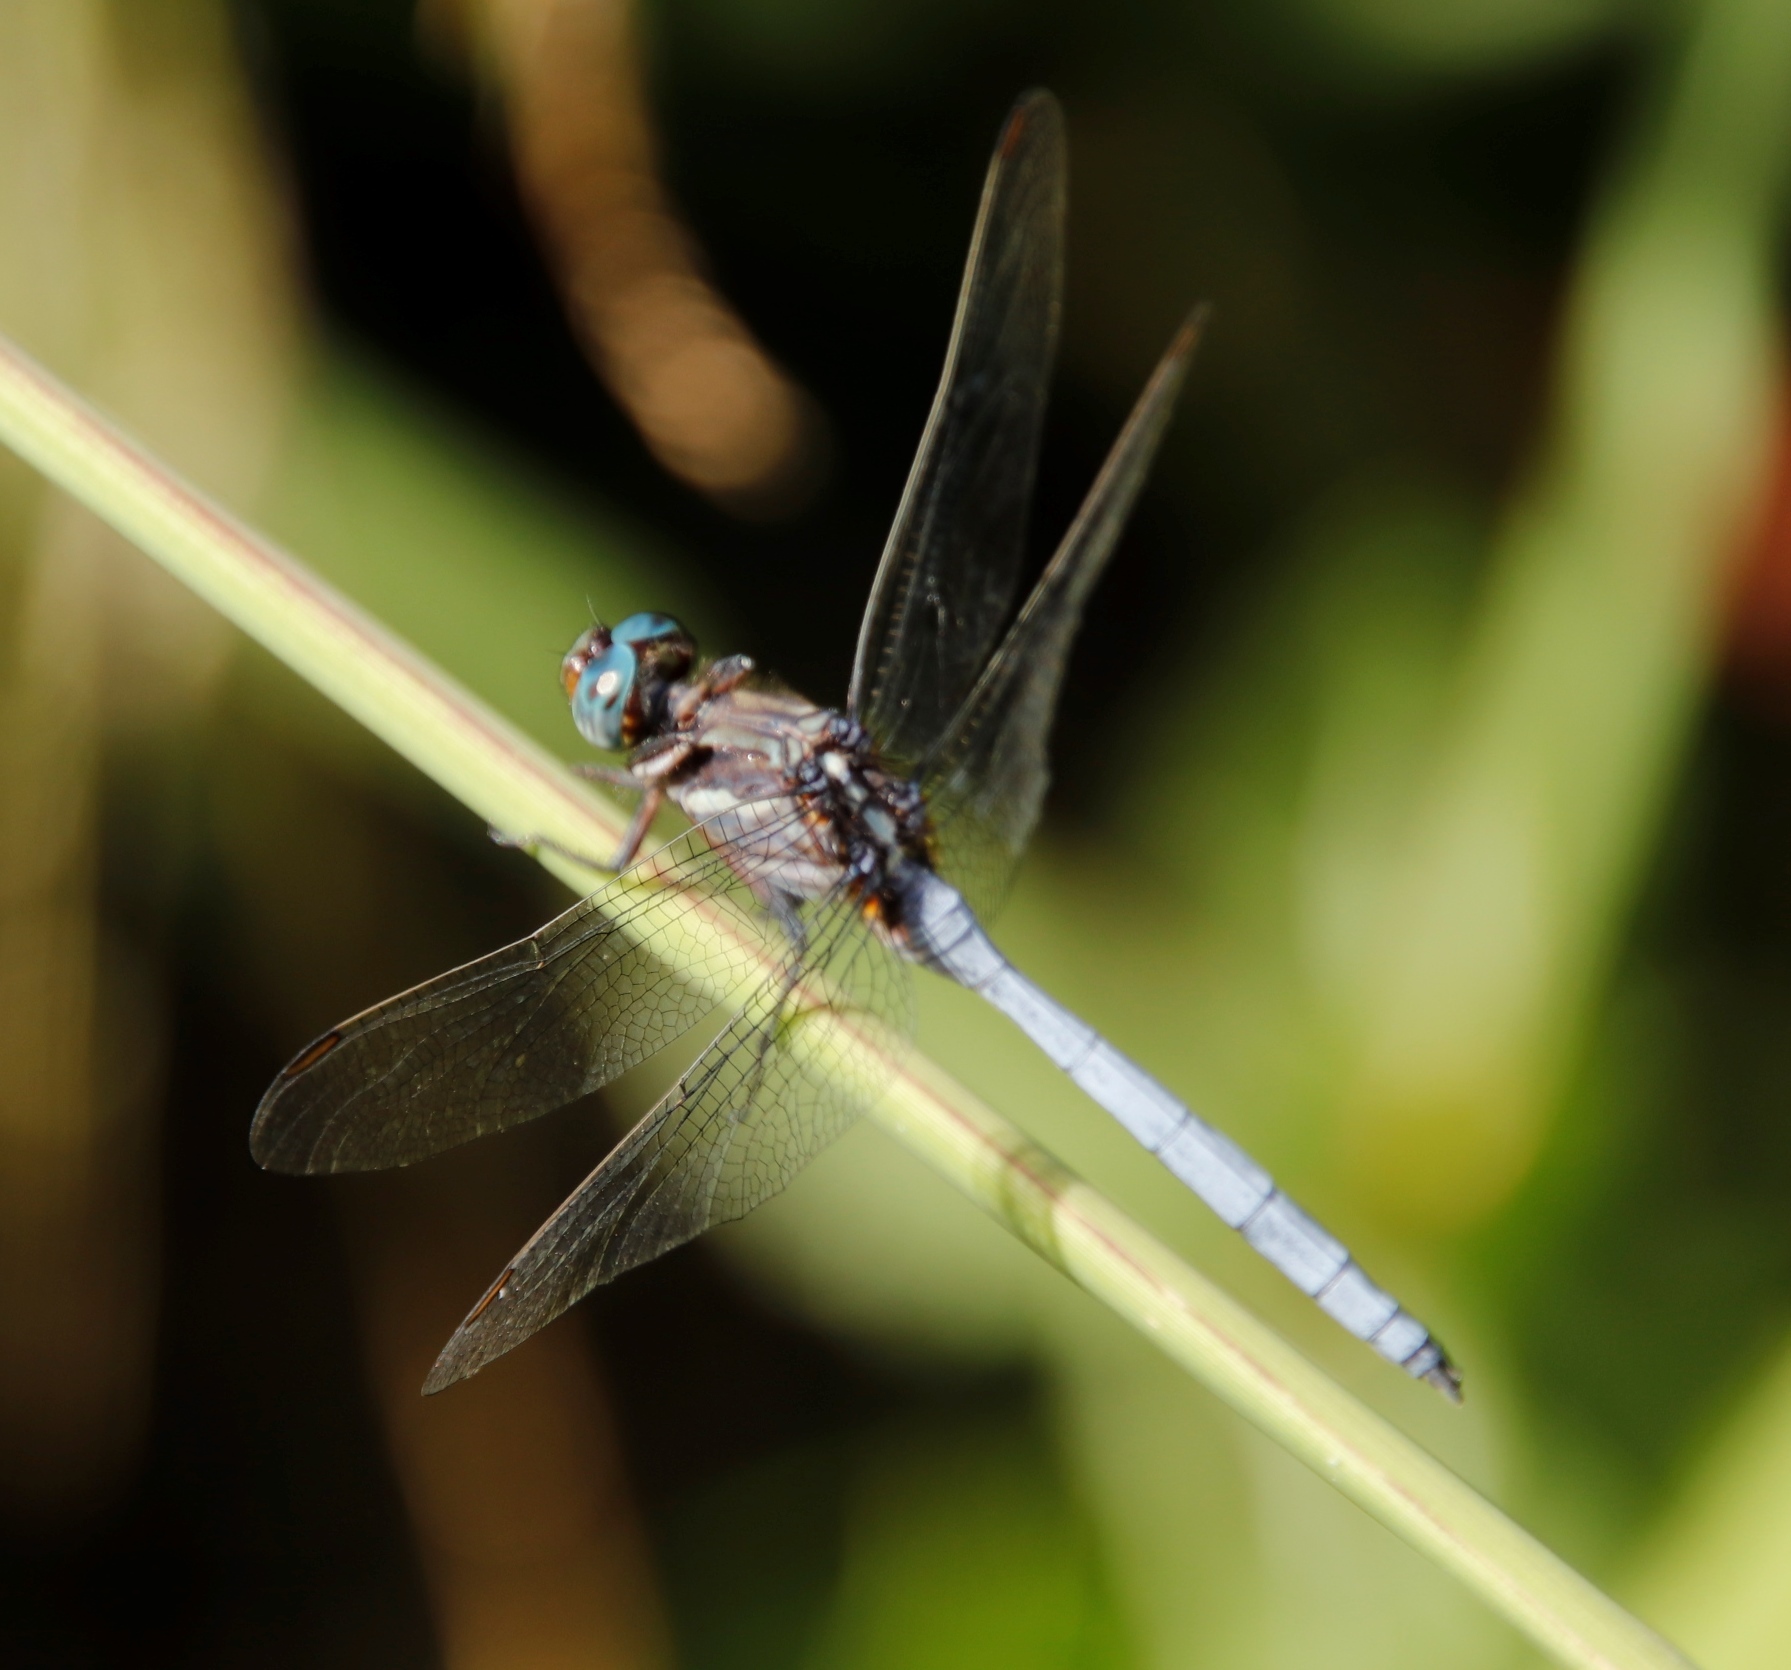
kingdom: Animalia
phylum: Arthropoda
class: Insecta
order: Odonata
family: Libellulidae
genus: Orthetrum
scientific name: Orthetrum julia
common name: Julia skimmer
